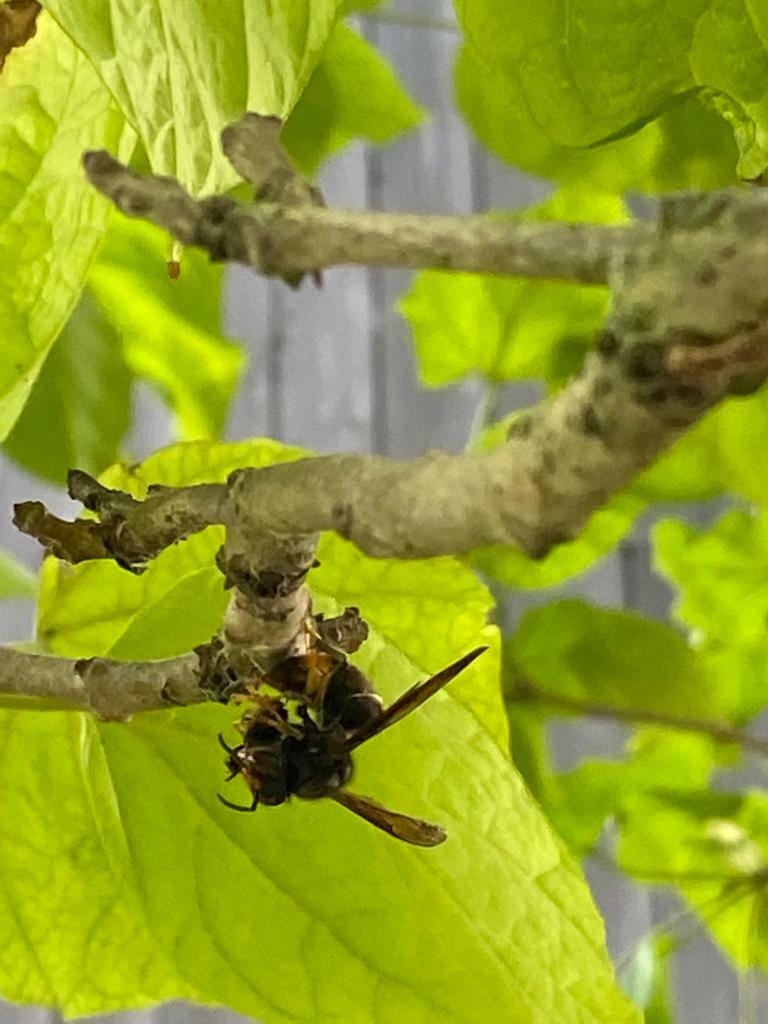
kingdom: Animalia
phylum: Arthropoda
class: Insecta
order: Hymenoptera
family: Vespidae
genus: Vespa
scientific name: Vespa velutina
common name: Asian hornet
